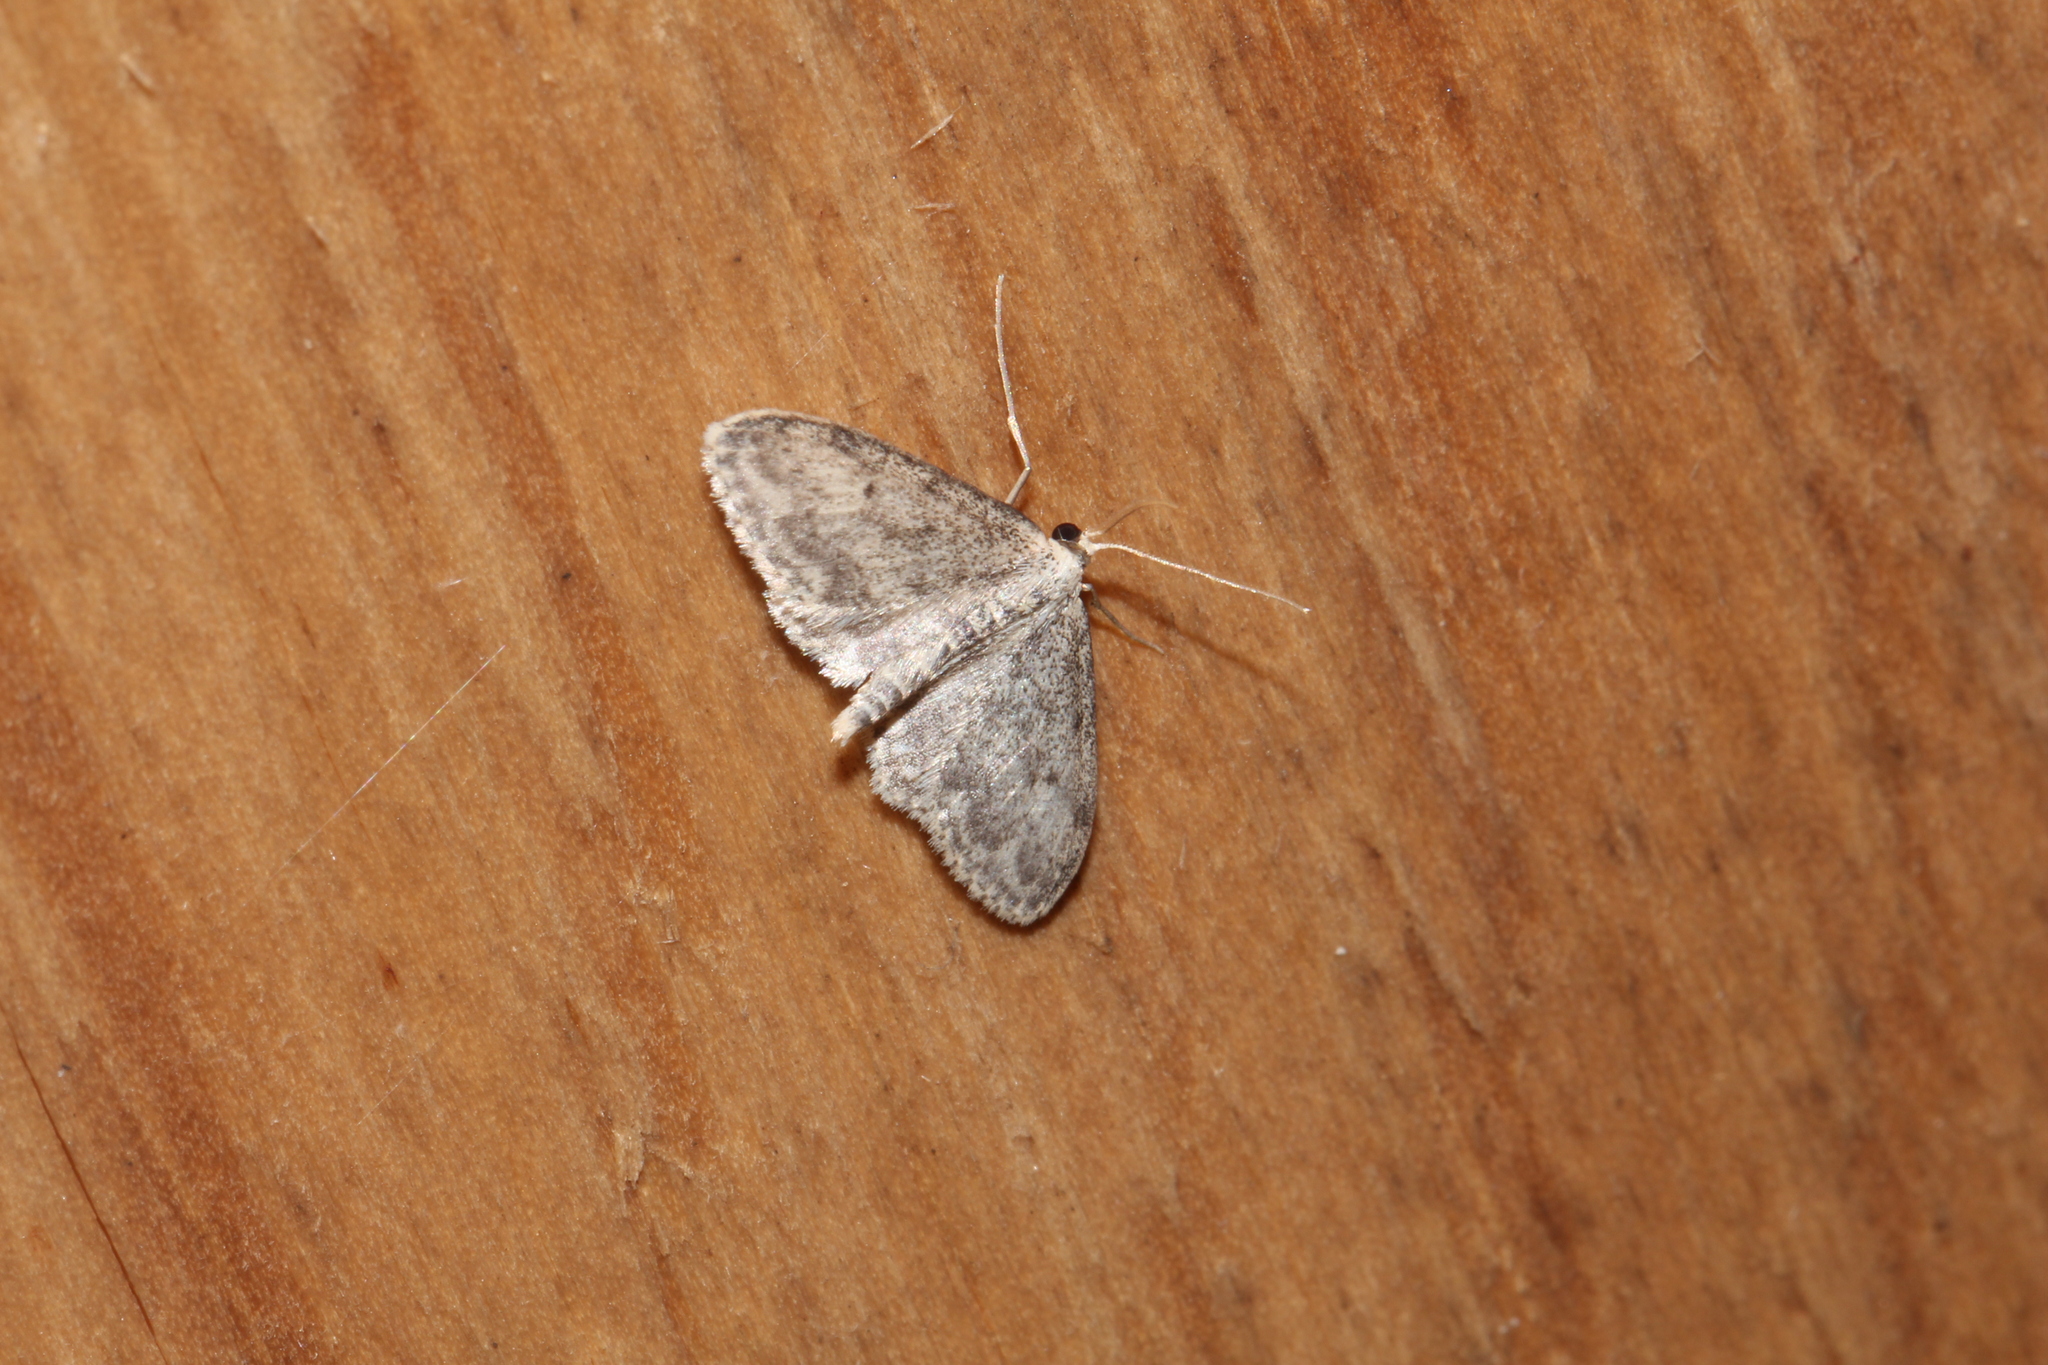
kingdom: Animalia
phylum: Arthropoda
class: Insecta
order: Lepidoptera
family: Geometridae
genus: Idaea
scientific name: Idaea seriata
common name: Small dusty wave
